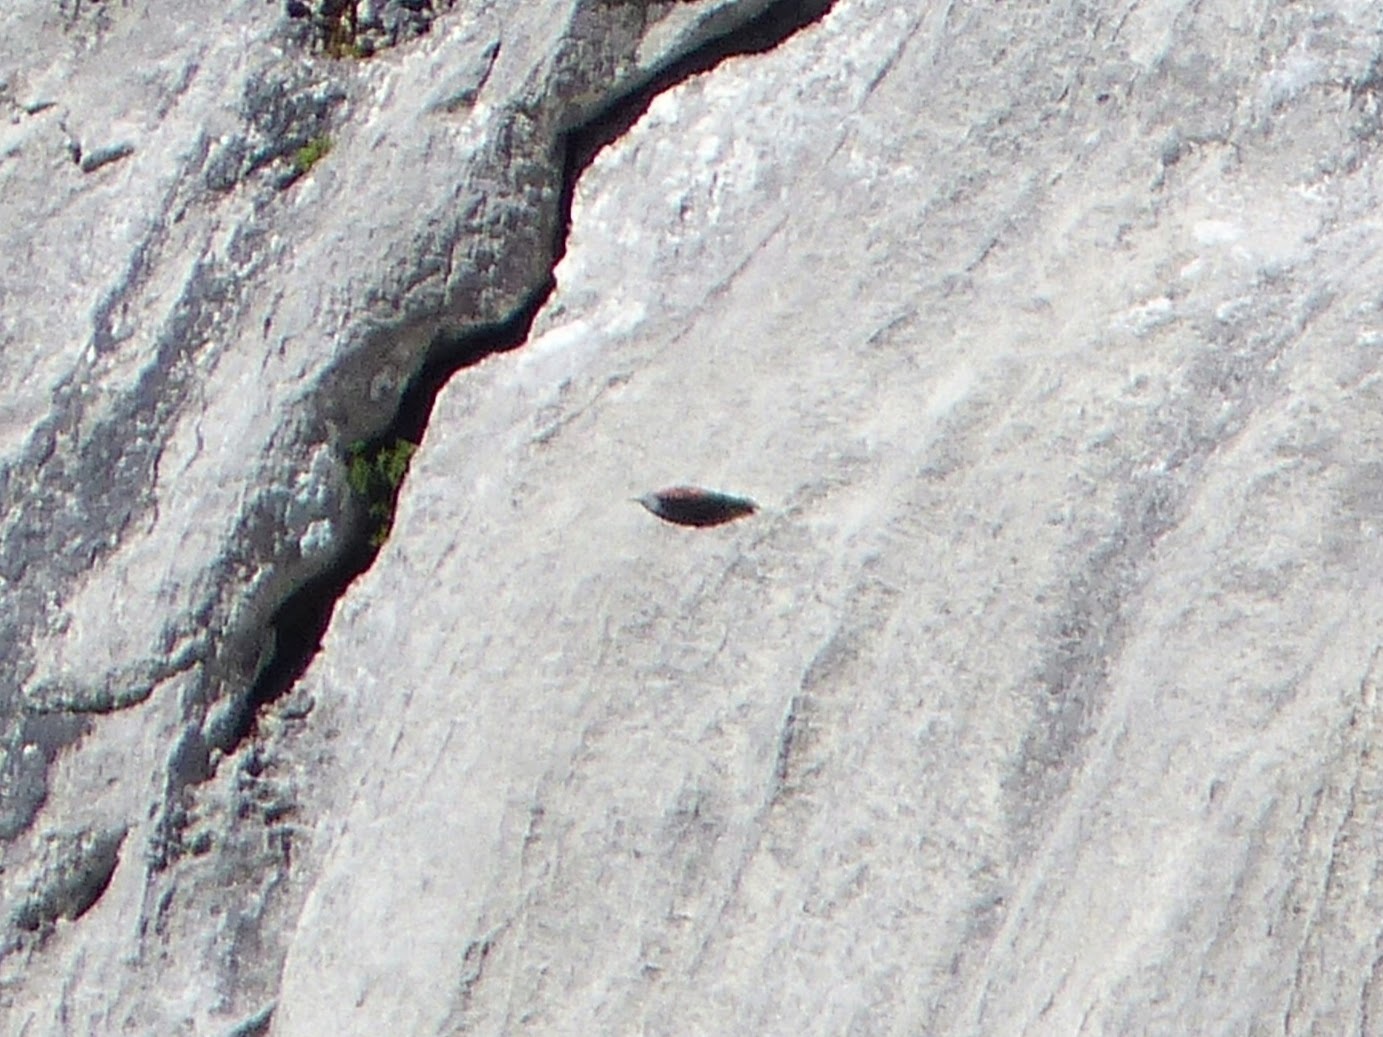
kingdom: Animalia
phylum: Chordata
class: Aves
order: Passeriformes
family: Tichodromidae
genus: Tichodroma
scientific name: Tichodroma muraria
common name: Wallcreeper
